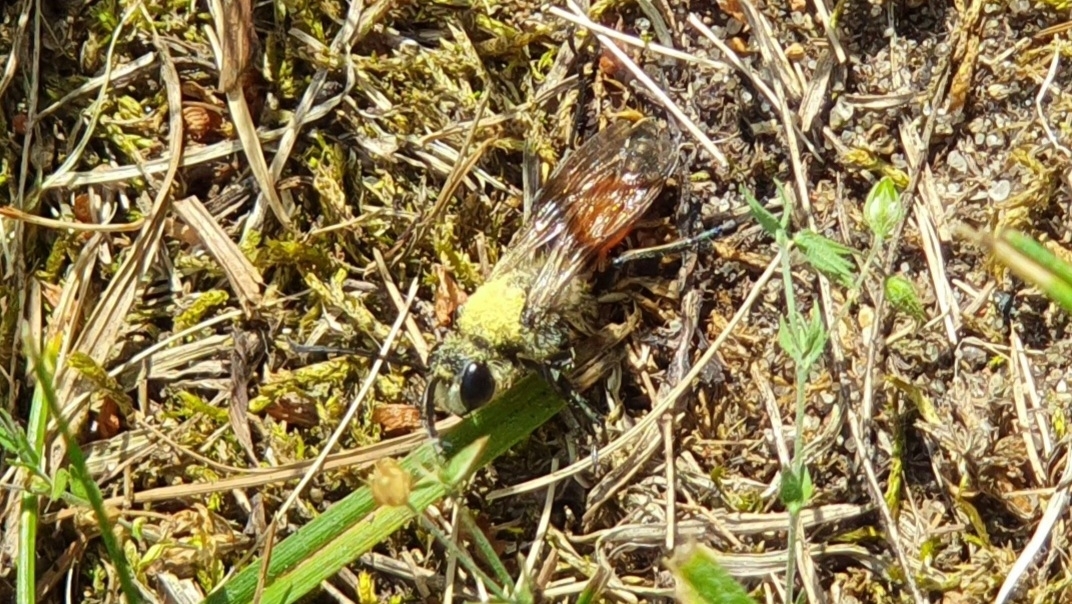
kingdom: Animalia
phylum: Arthropoda
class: Insecta
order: Hymenoptera
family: Sphecidae
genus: Sphex
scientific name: Sphex funerarius
